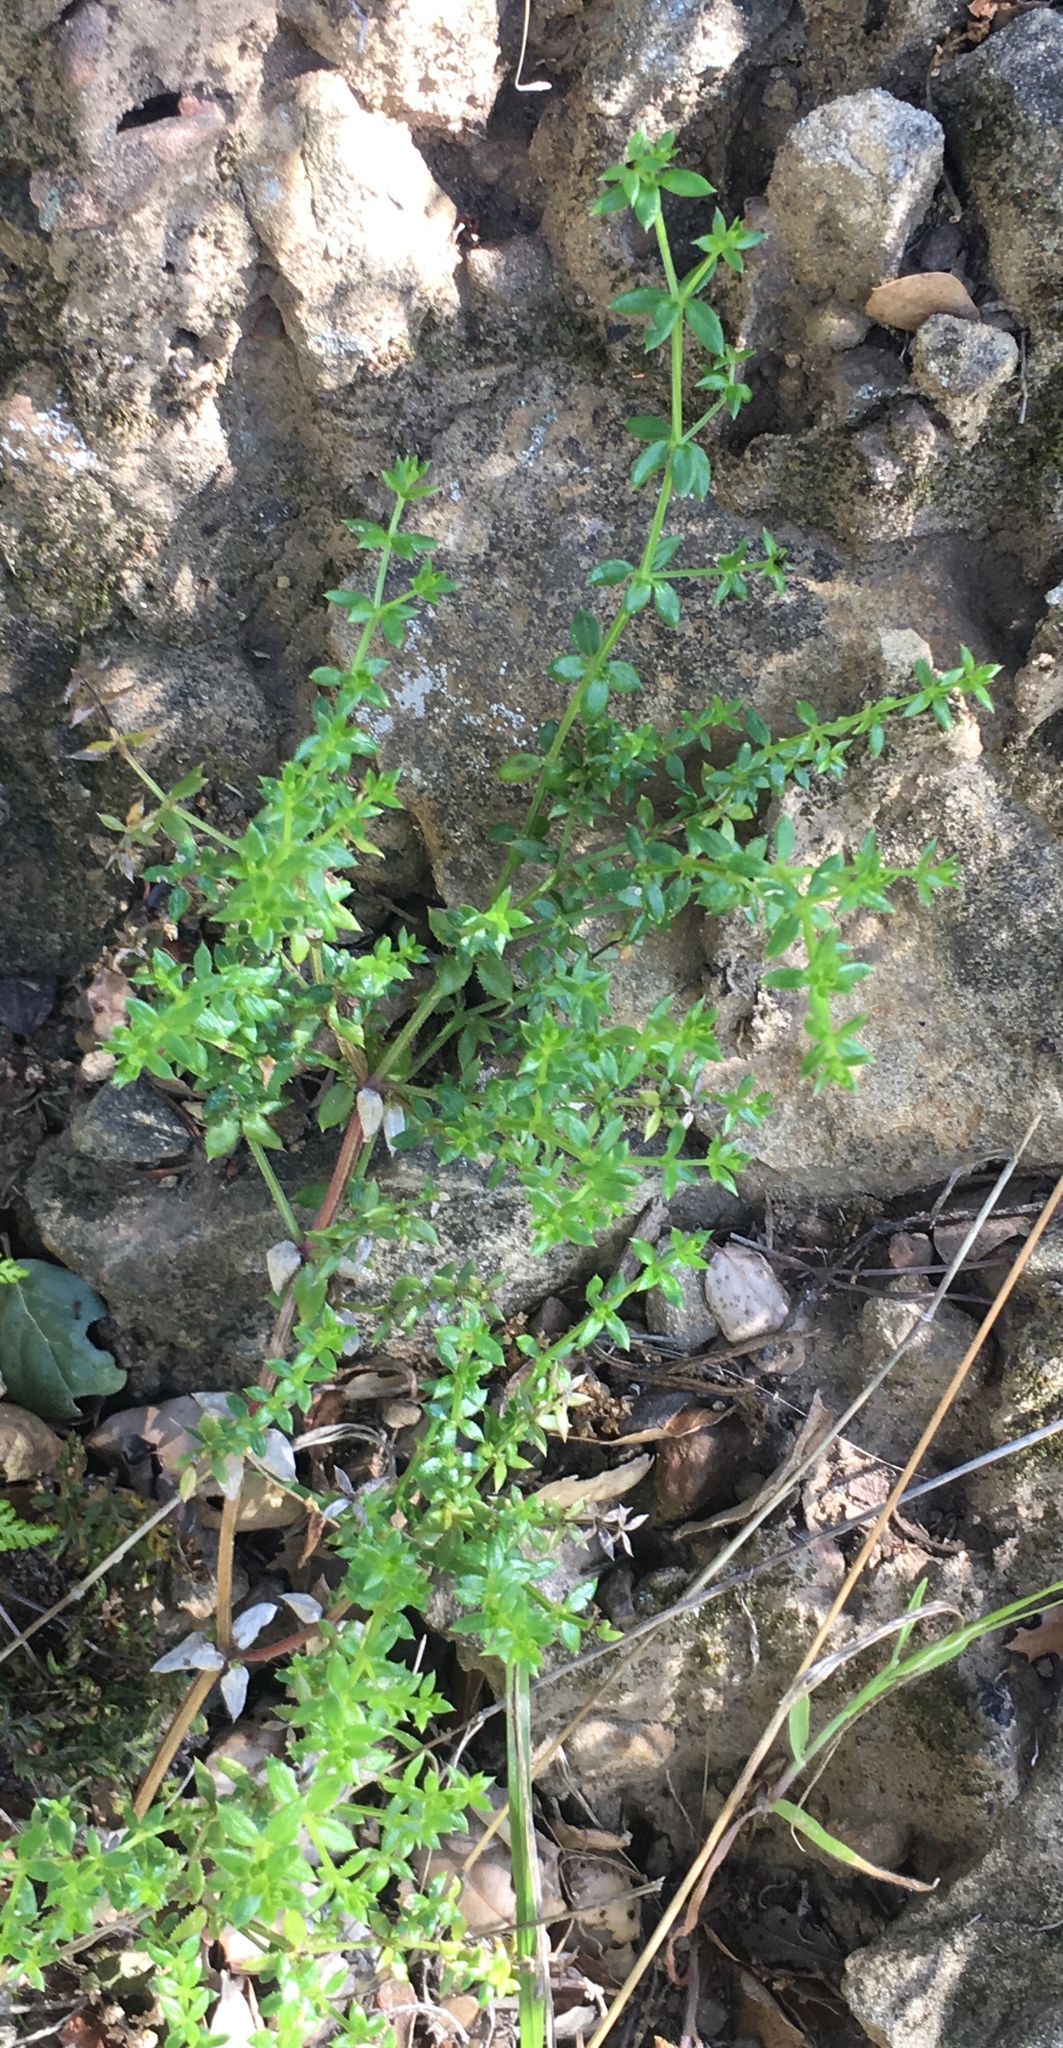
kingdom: Plantae
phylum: Tracheophyta
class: Magnoliopsida
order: Gentianales
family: Rubiaceae
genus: Galium
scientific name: Galium cliftonsmithii
